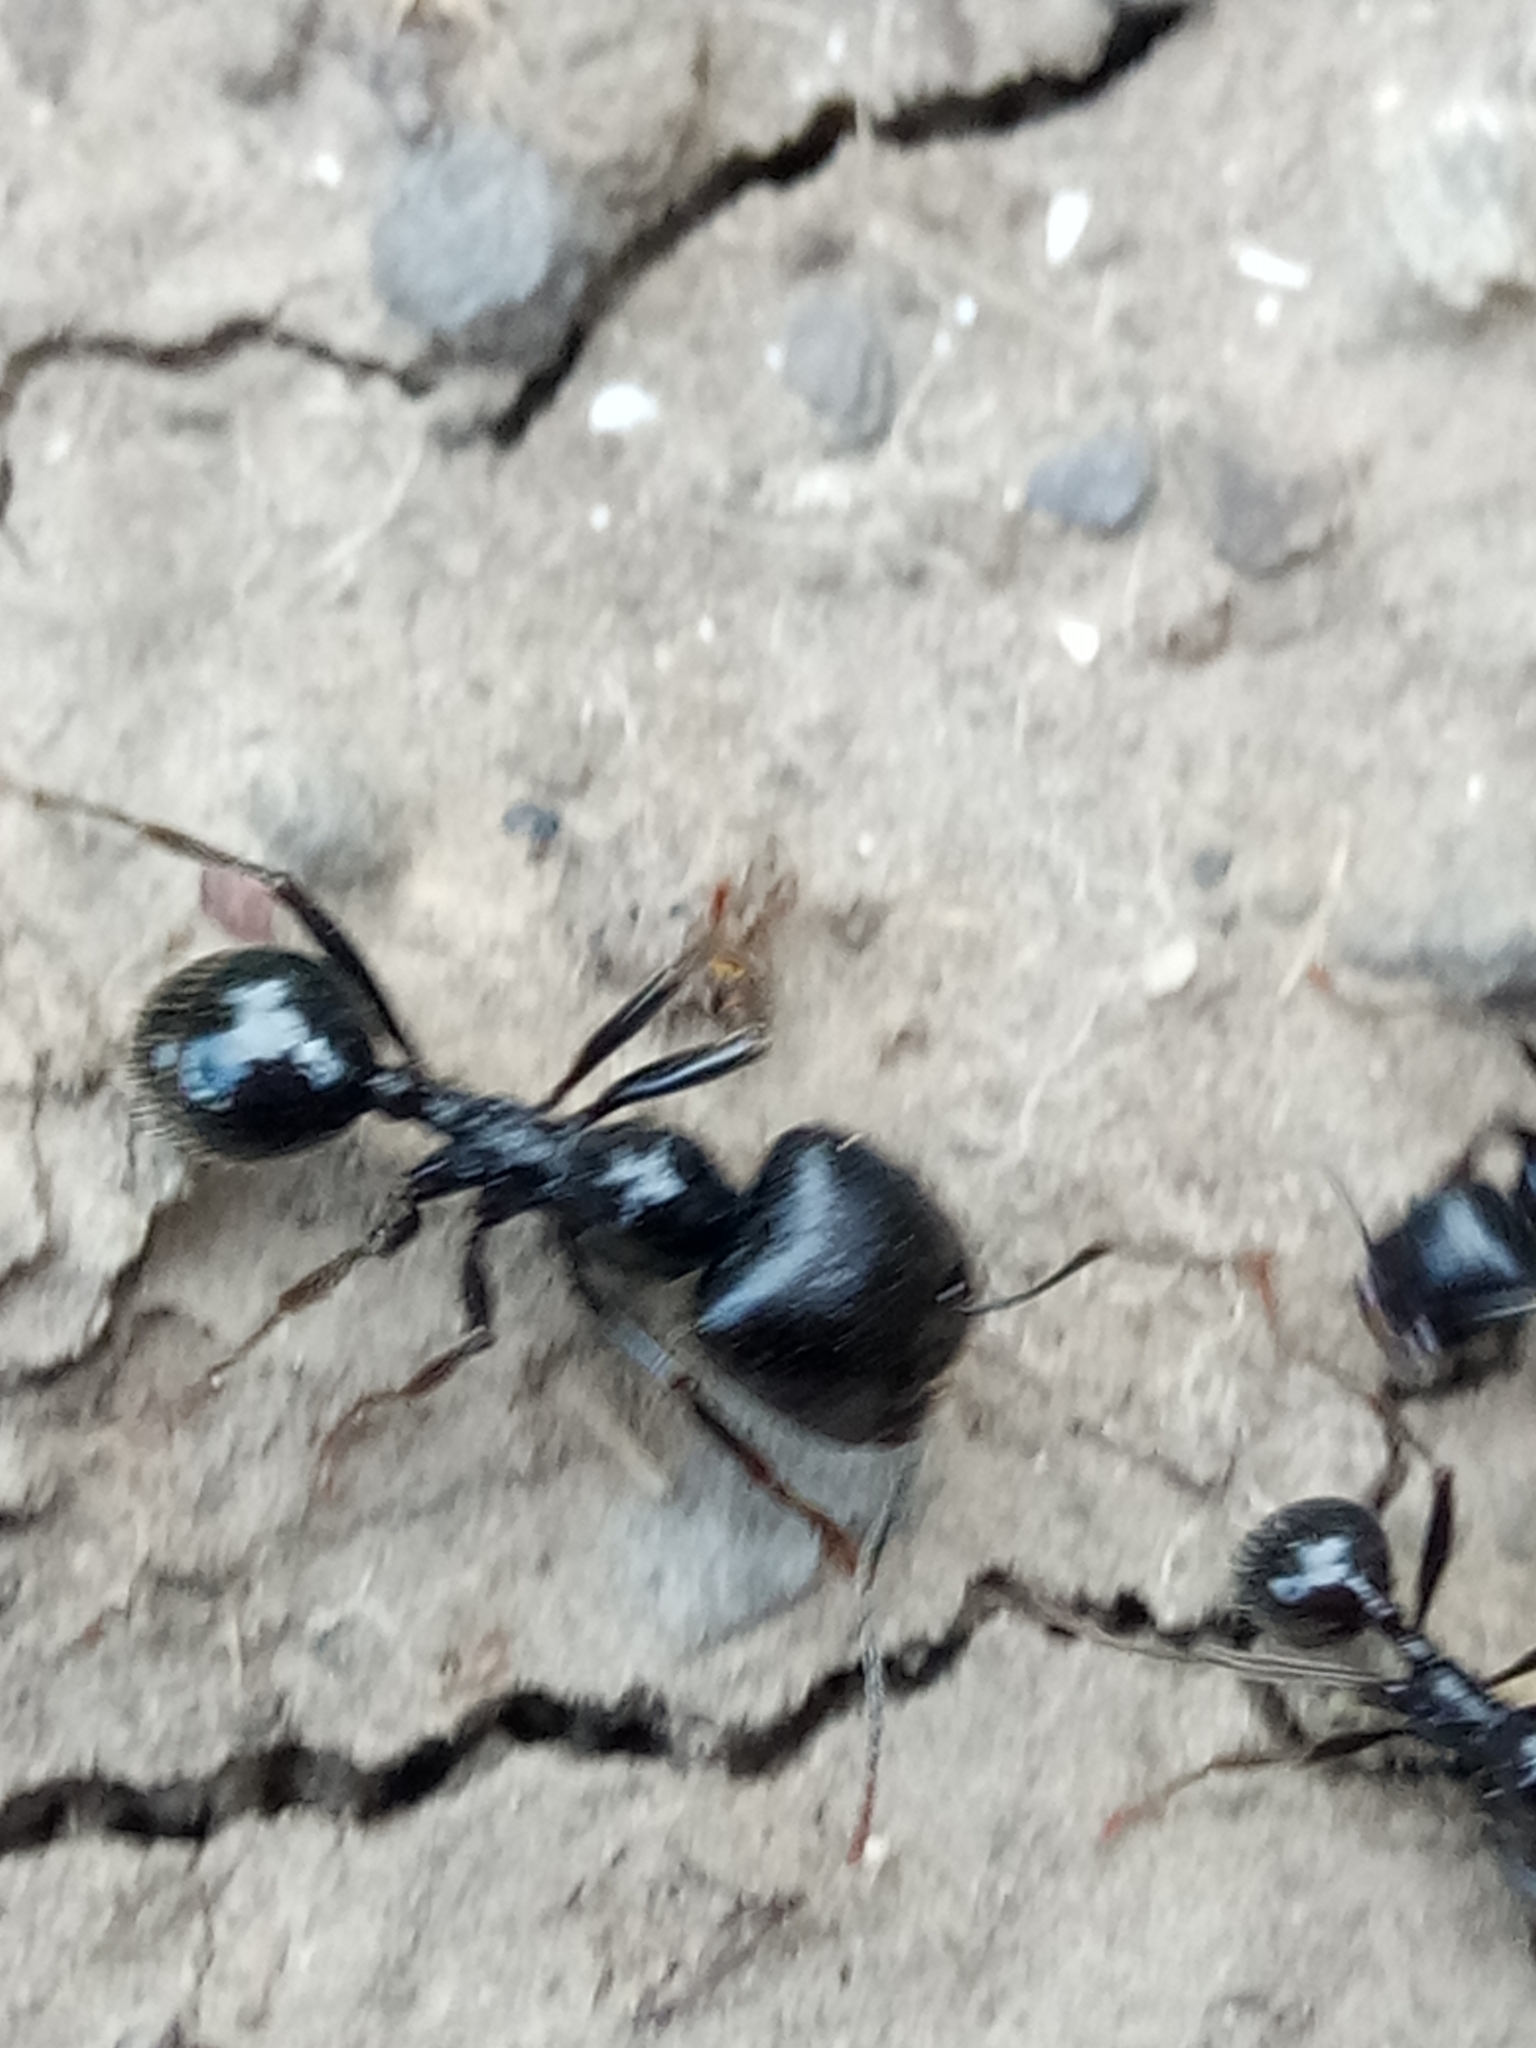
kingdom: Animalia
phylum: Arthropoda
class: Insecta
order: Hymenoptera
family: Formicidae
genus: Messor
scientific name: Messor barbarus
